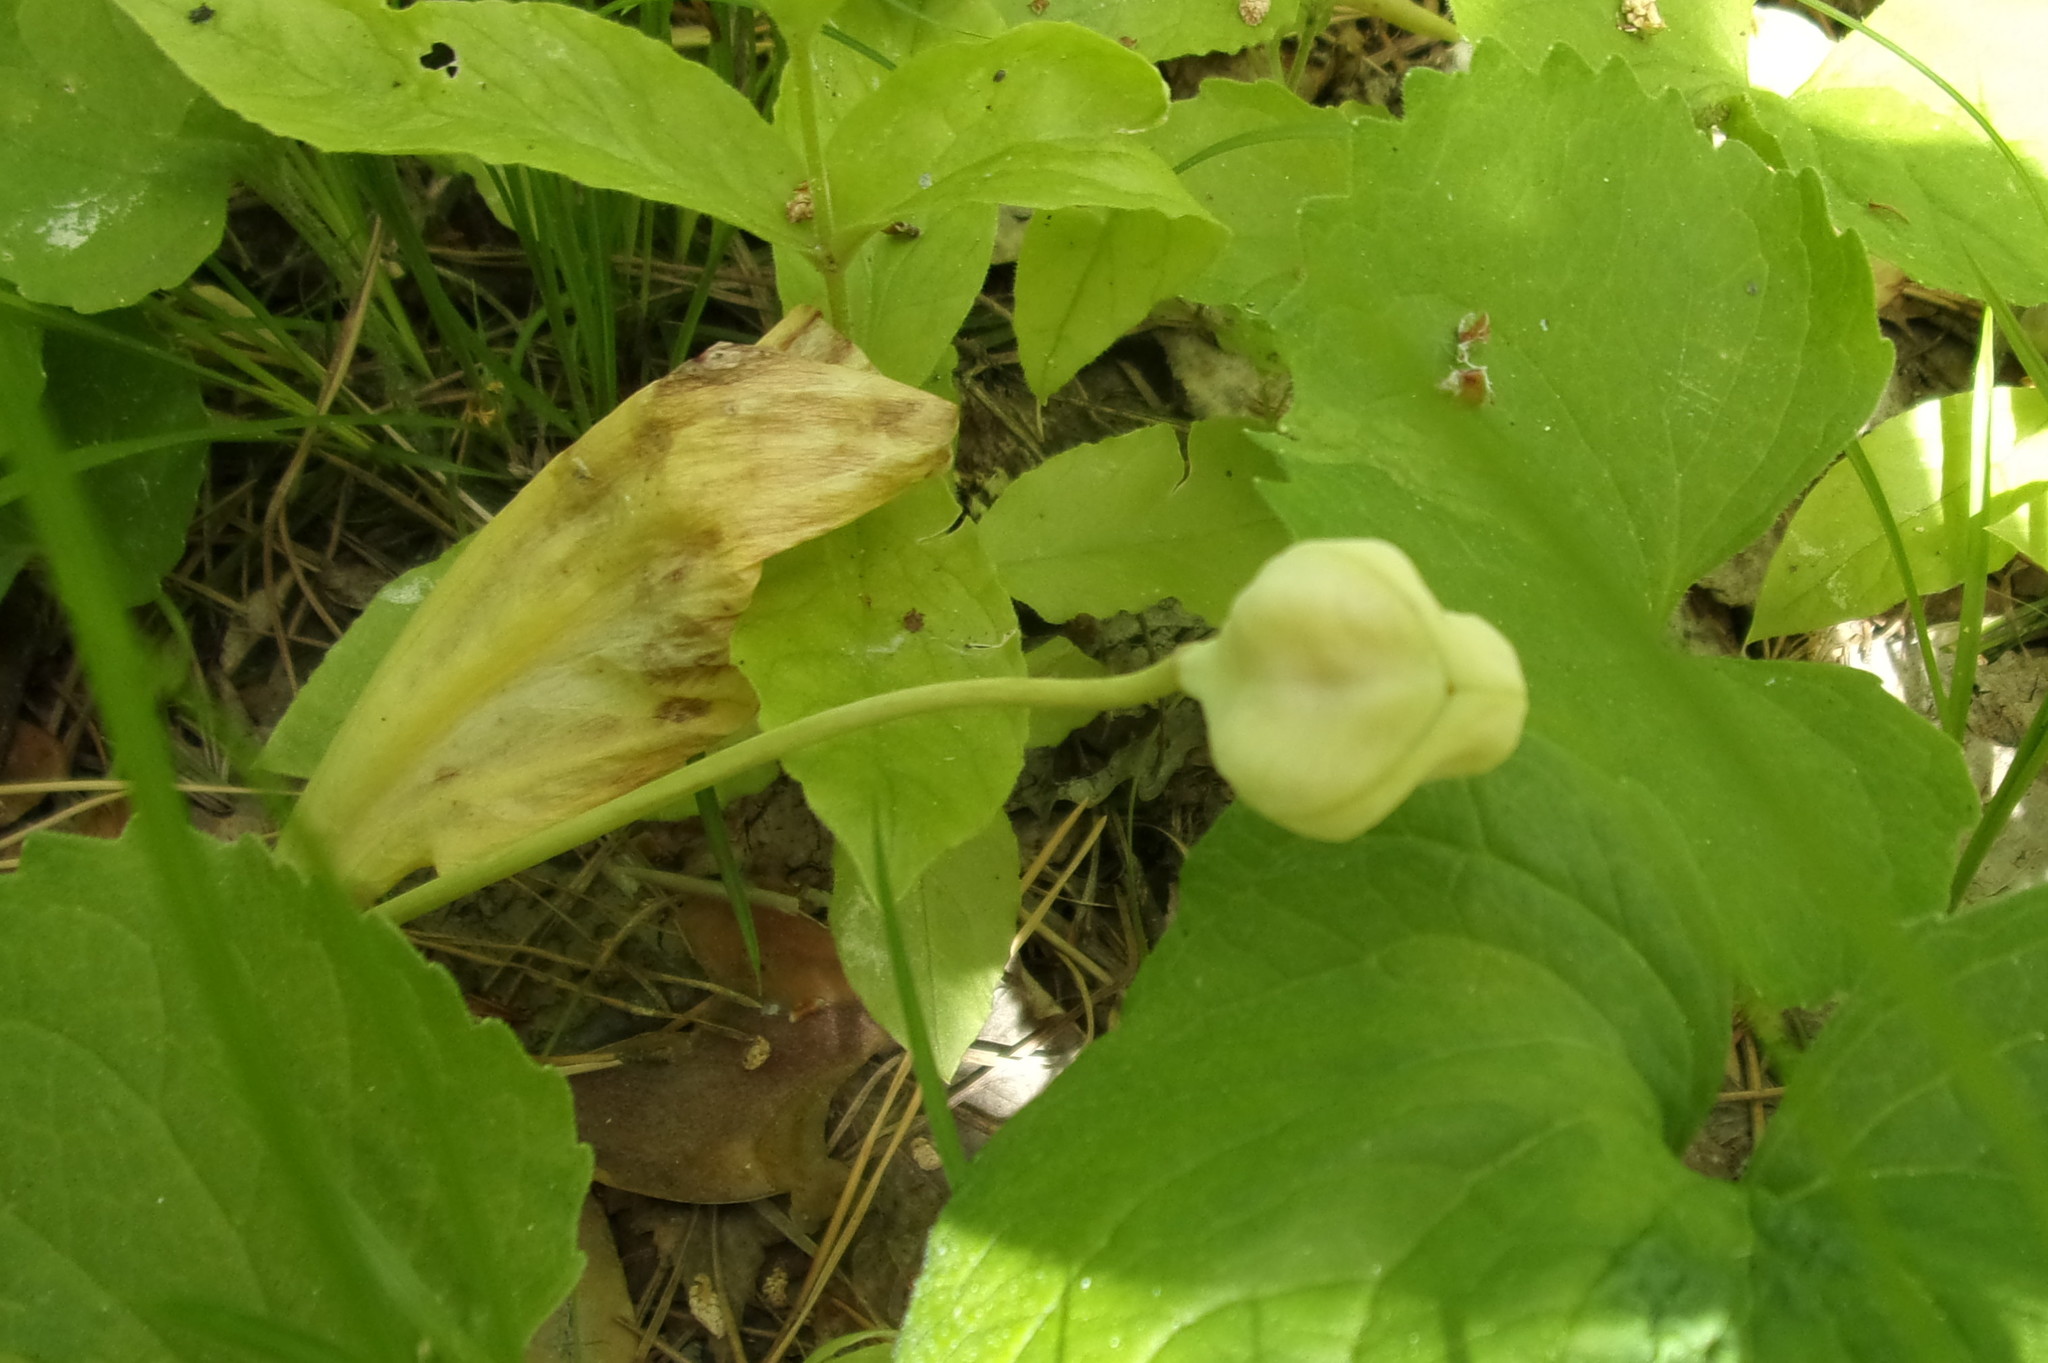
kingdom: Plantae
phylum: Tracheophyta
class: Liliopsida
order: Liliales
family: Liliaceae
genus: Erythronium
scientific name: Erythronium sibiricum
